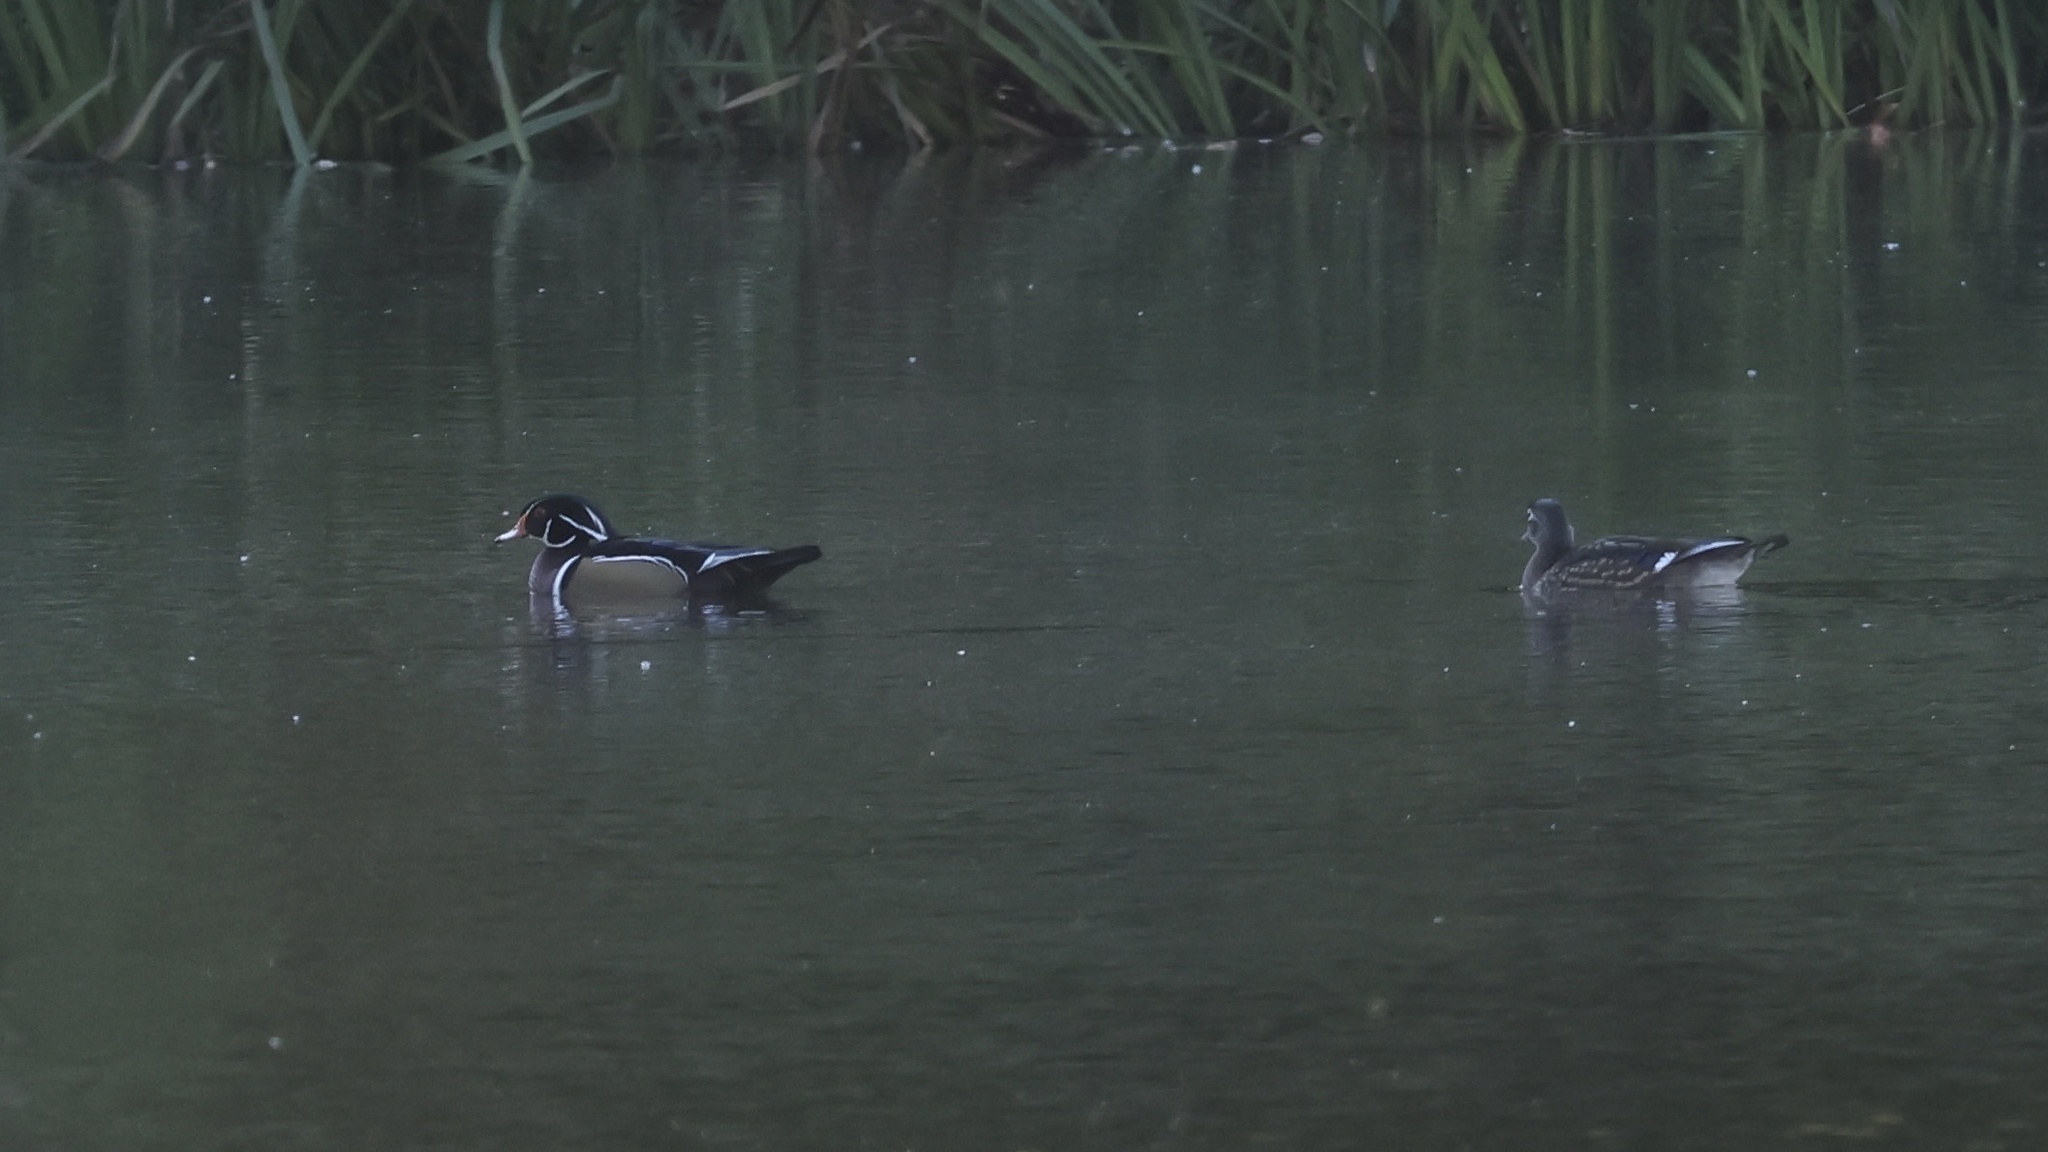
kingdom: Animalia
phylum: Chordata
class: Aves
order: Anseriformes
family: Anatidae
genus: Aix
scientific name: Aix sponsa
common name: Wood duck
